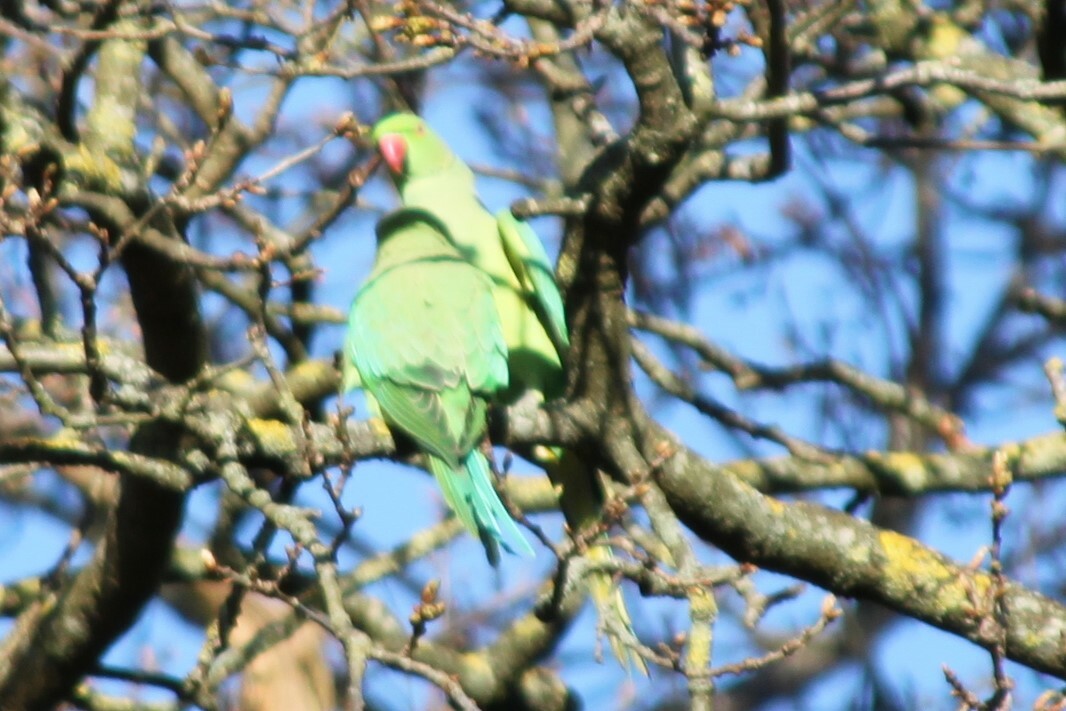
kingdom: Animalia
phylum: Chordata
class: Aves
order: Psittaciformes
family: Psittacidae
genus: Psittacula
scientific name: Psittacula krameri
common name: Rose-ringed parakeet
